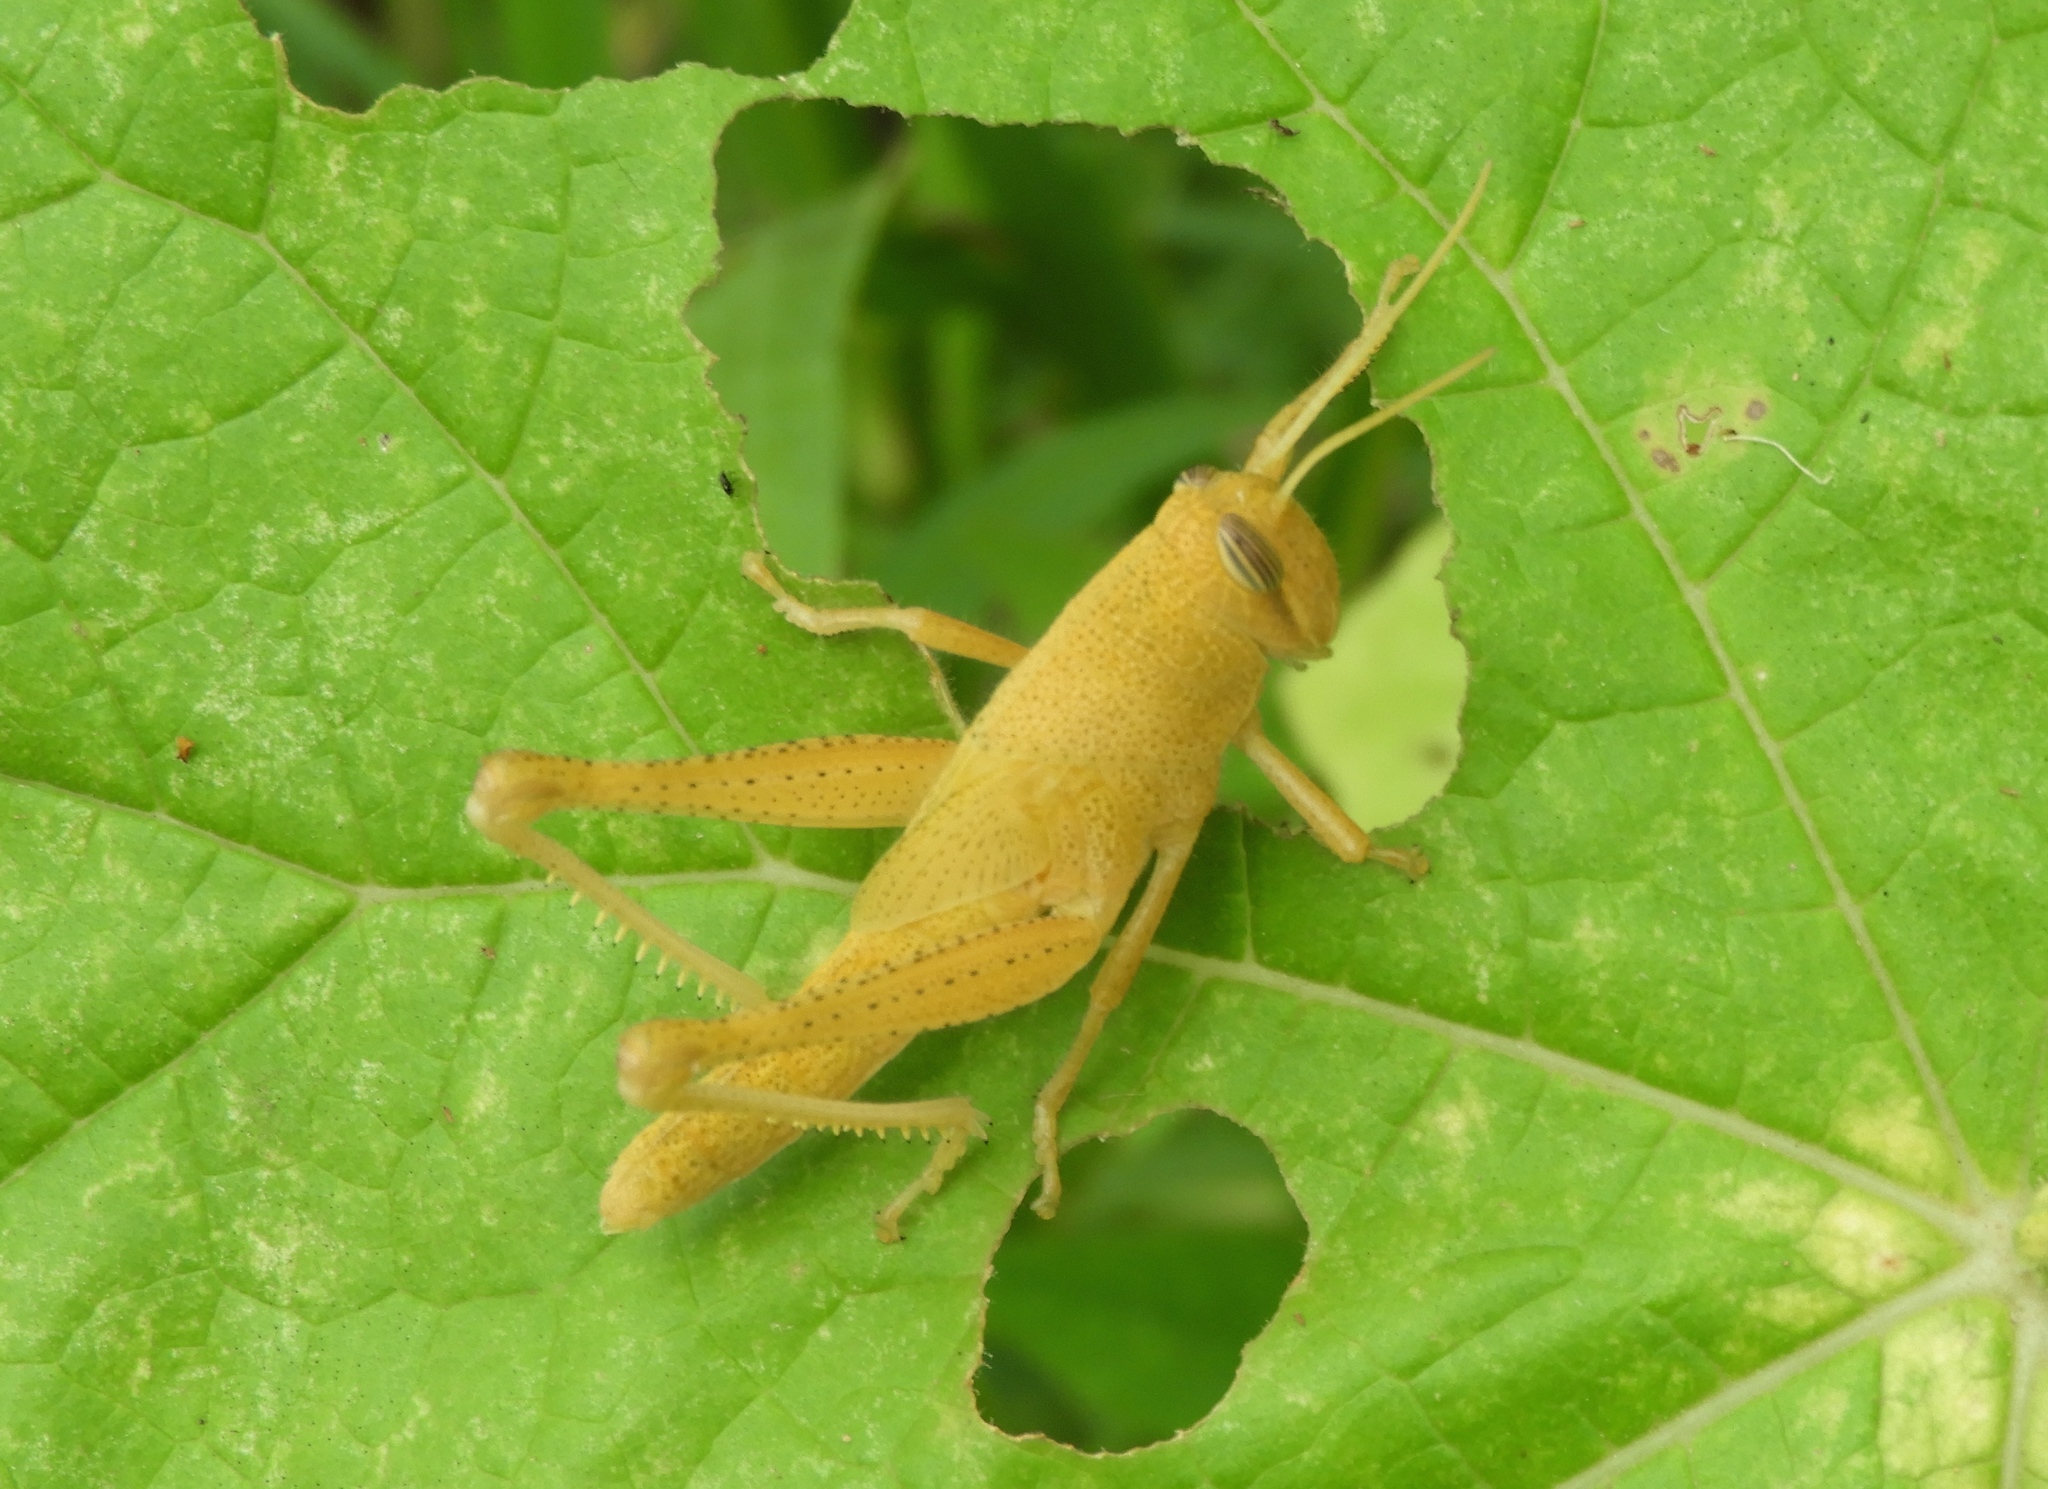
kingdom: Animalia
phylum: Arthropoda
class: Insecta
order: Orthoptera
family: Acrididae
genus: Schistocerca
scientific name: Schistocerca
